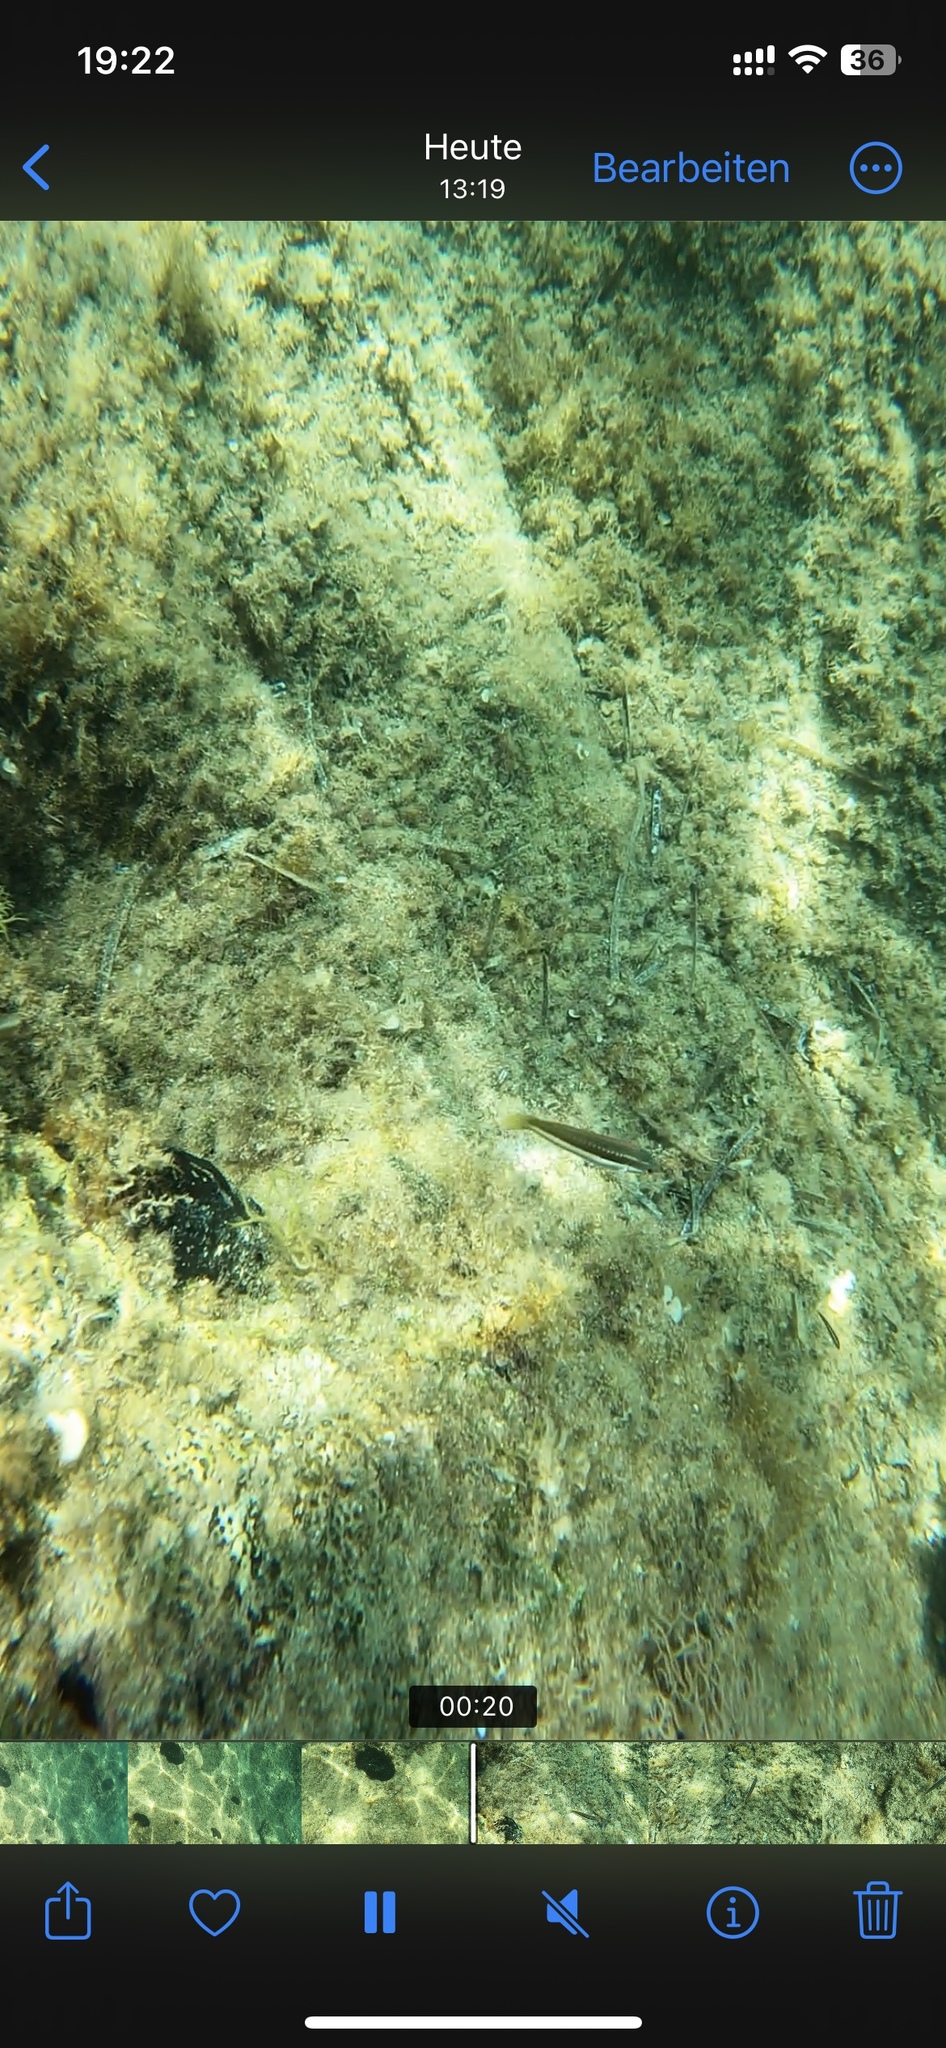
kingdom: Animalia
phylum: Chordata
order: Perciformes
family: Labridae
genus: Coris
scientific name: Coris julis
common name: Rainbow wrasse
